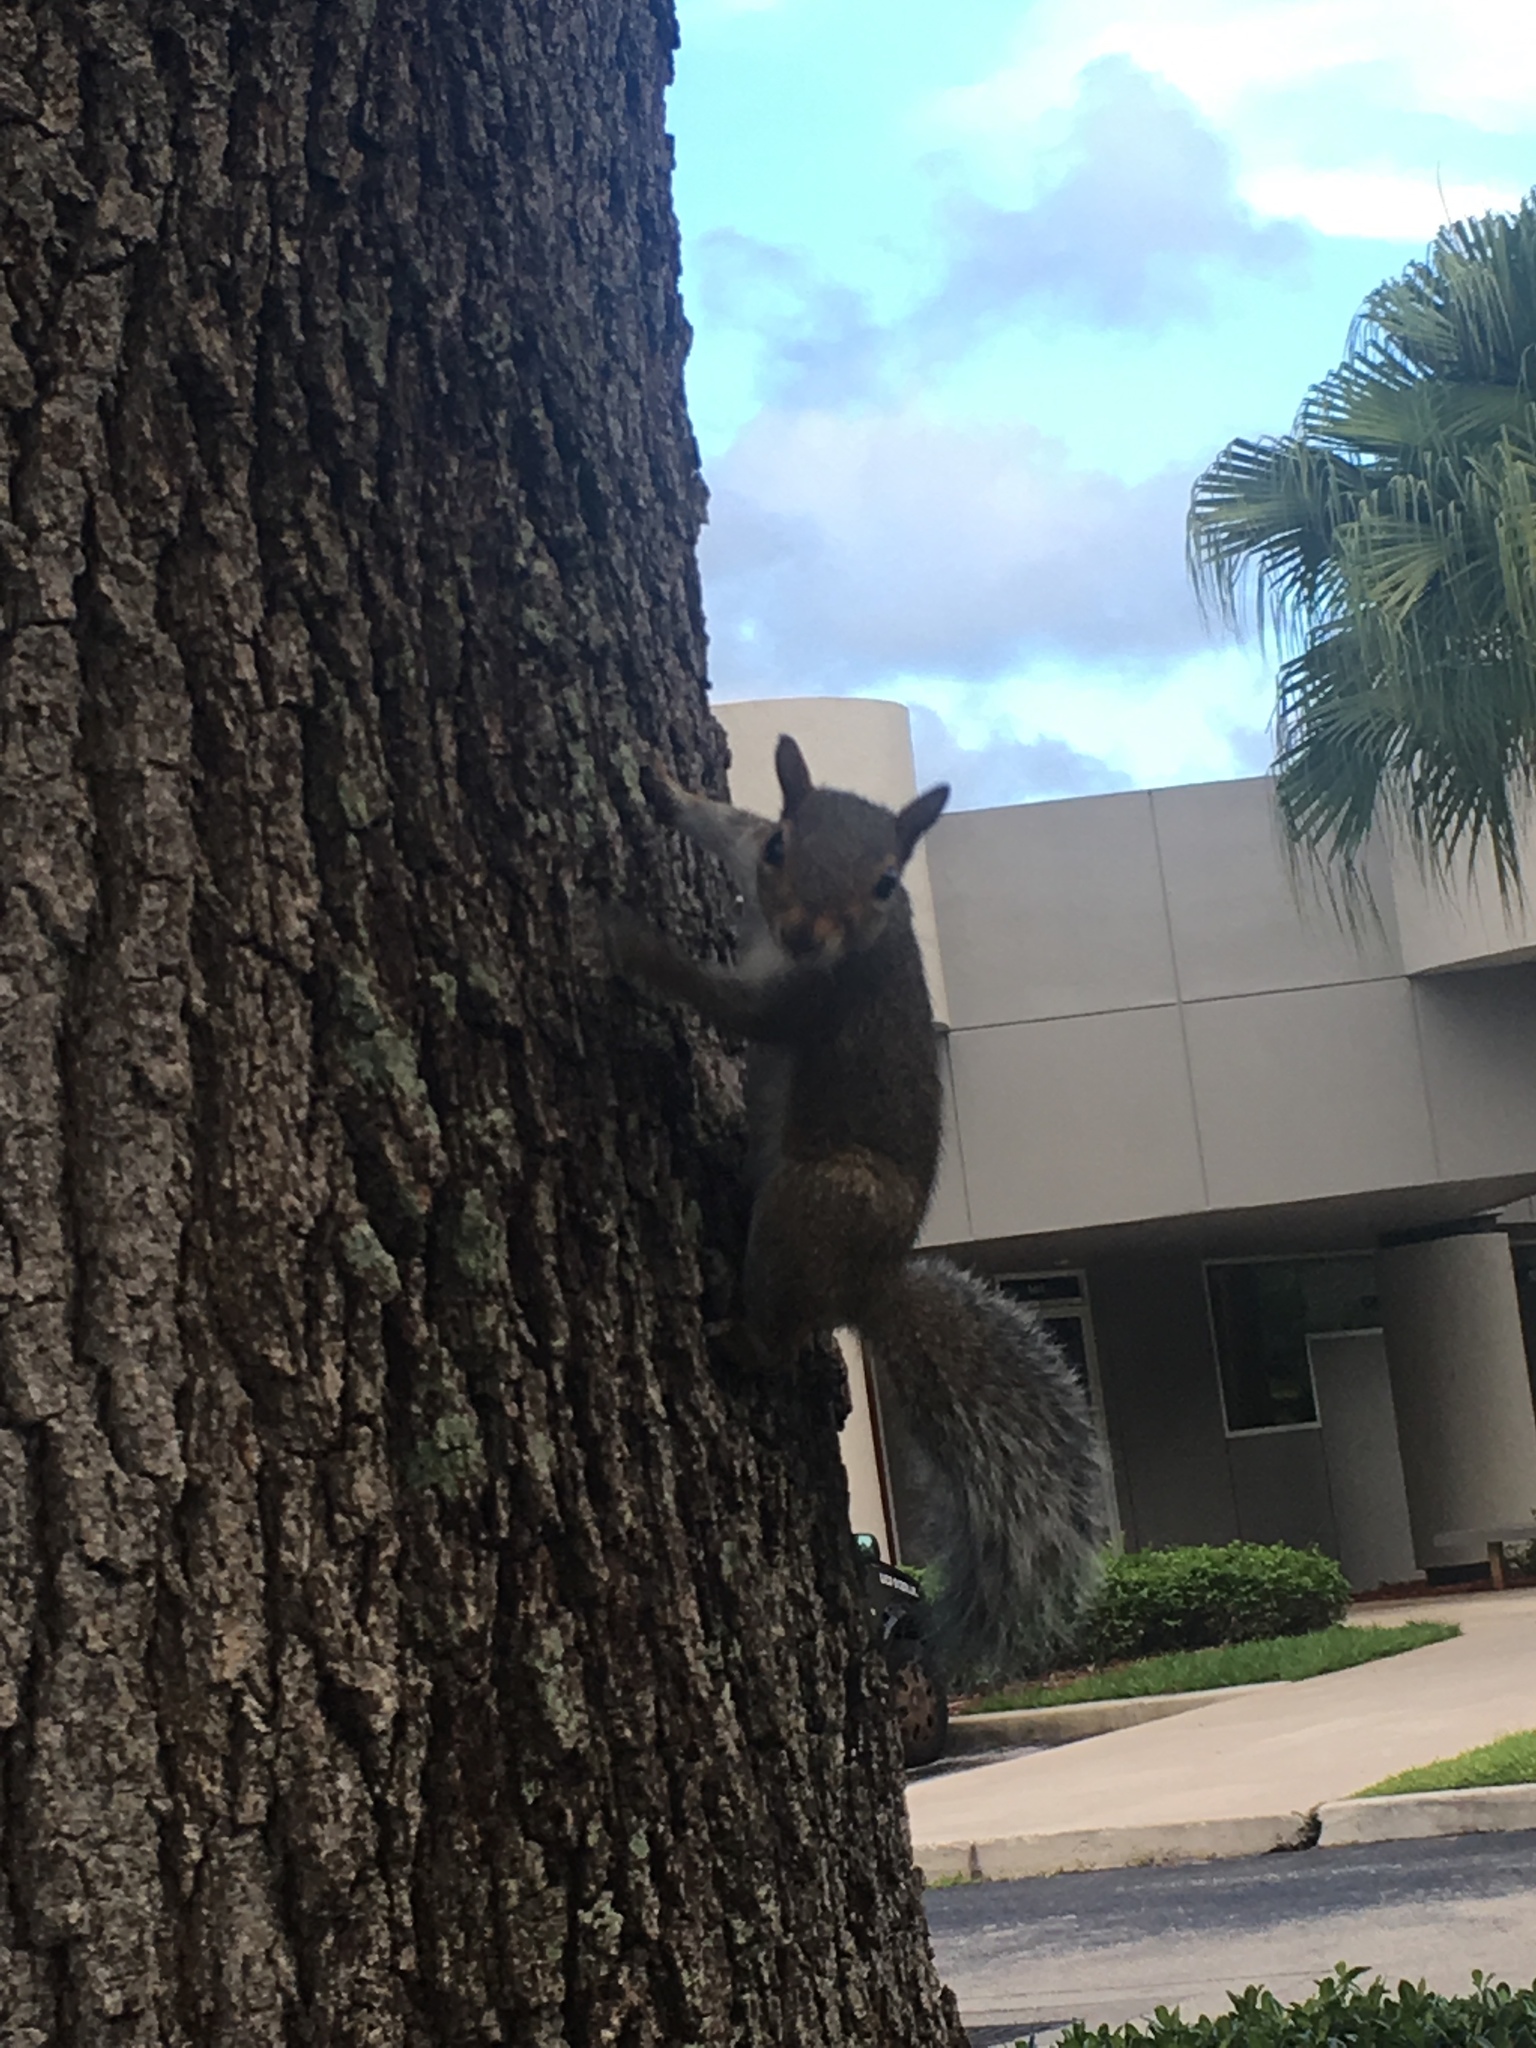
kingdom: Animalia
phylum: Chordata
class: Mammalia
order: Rodentia
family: Sciuridae
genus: Sciurus
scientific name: Sciurus carolinensis
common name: Eastern gray squirrel
